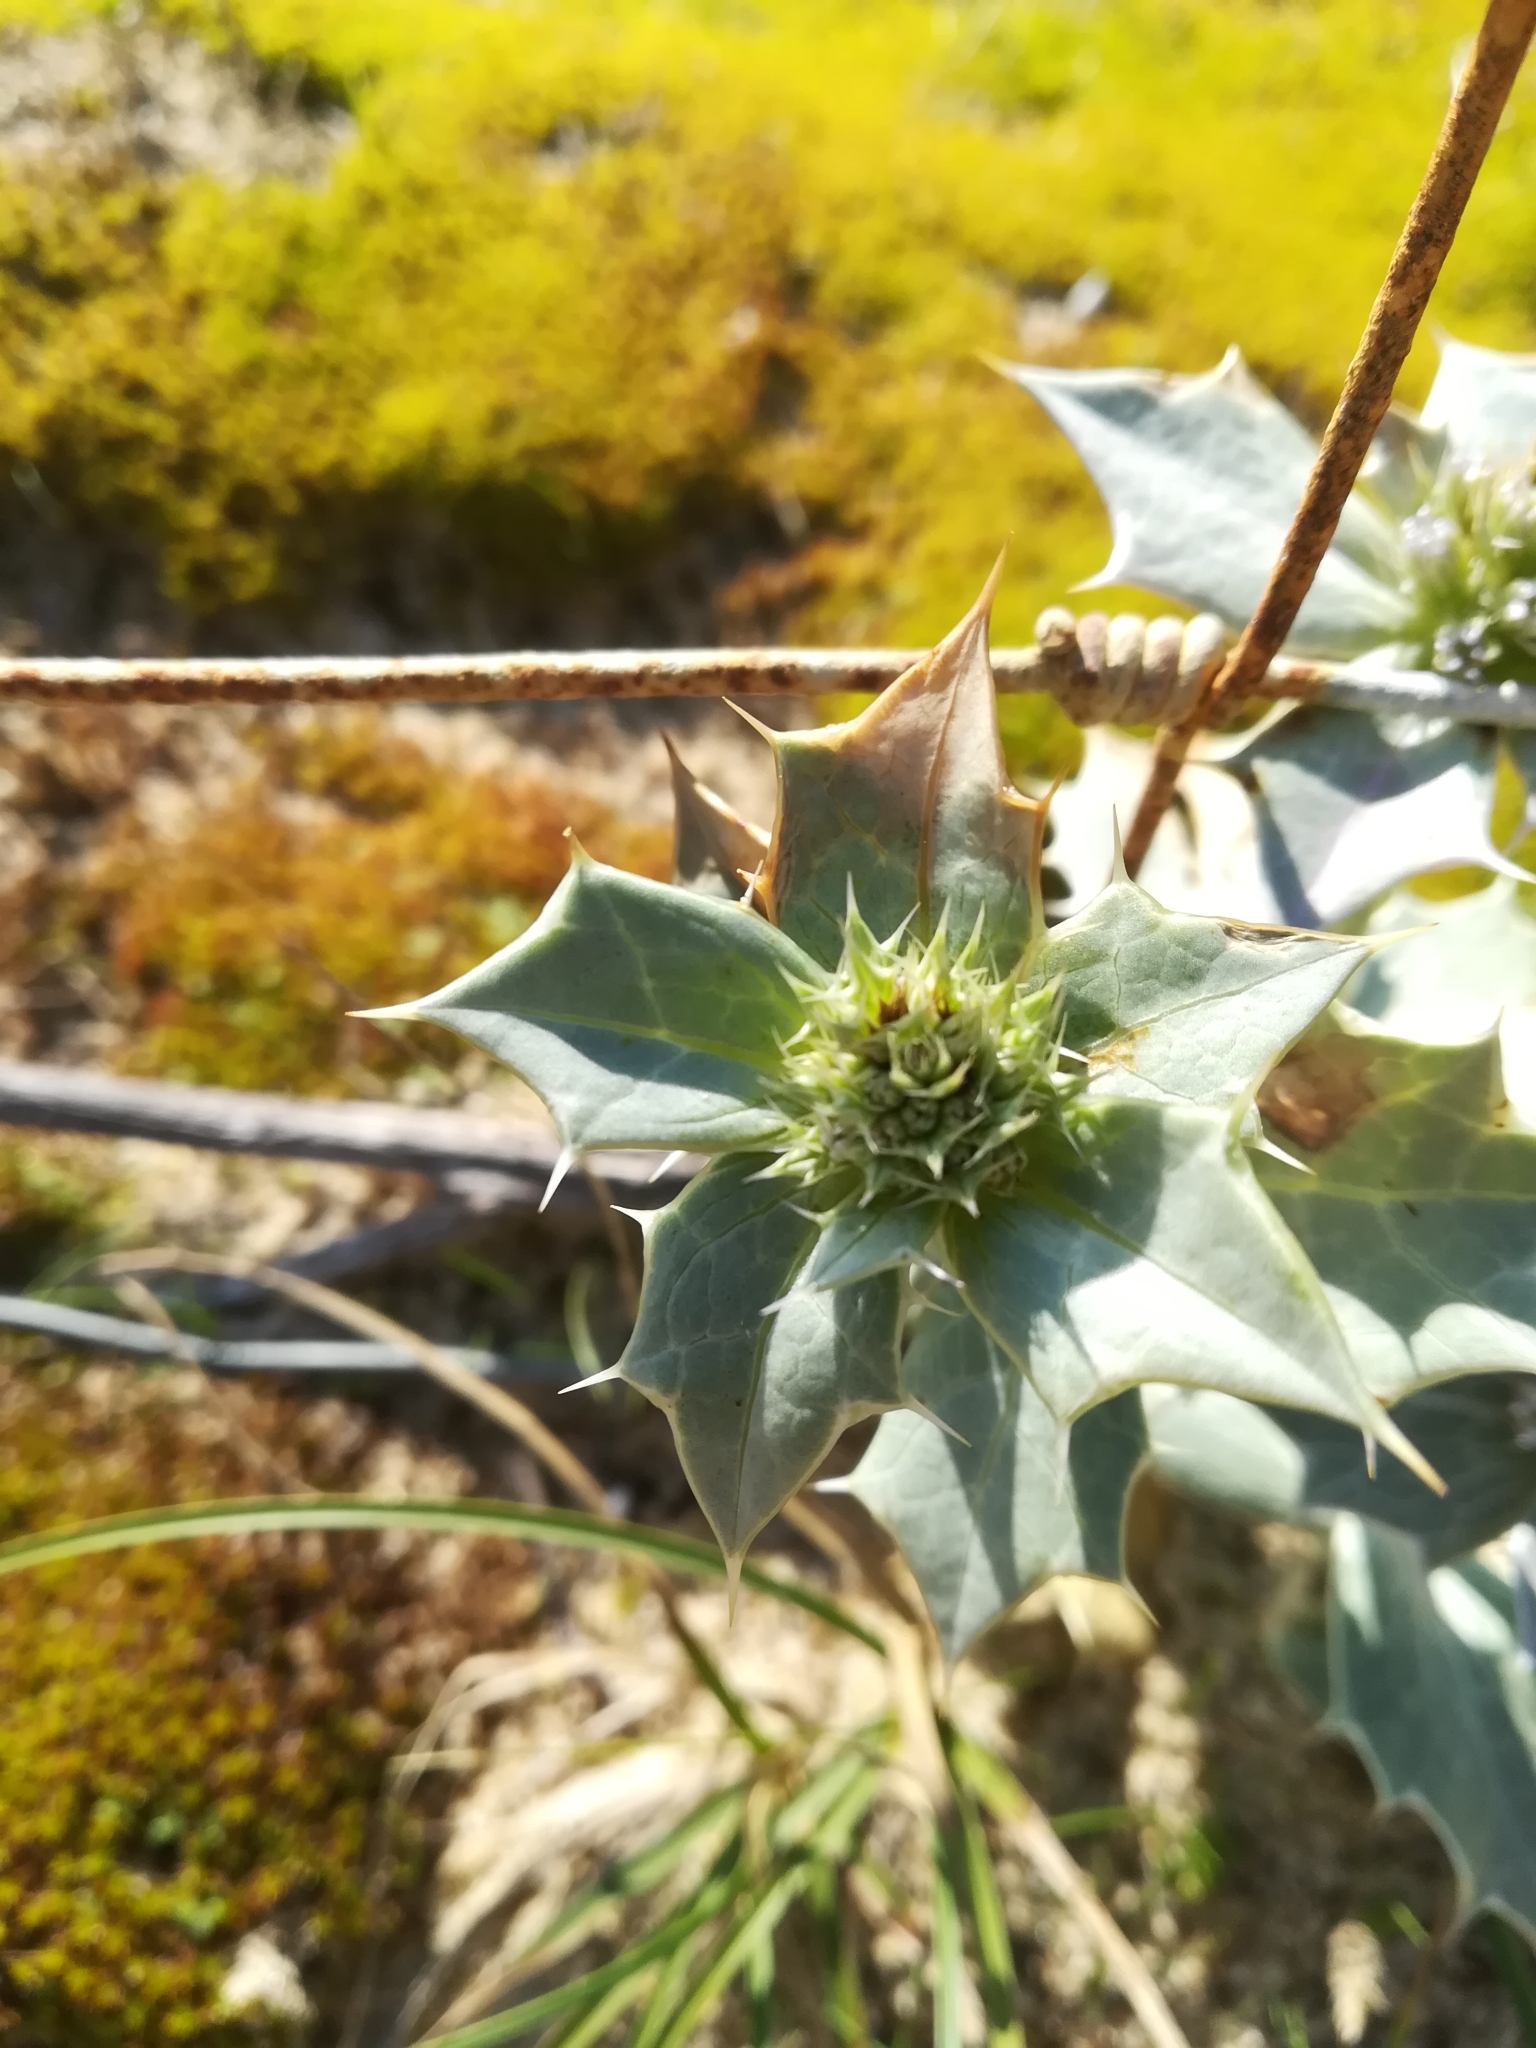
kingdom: Plantae
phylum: Tracheophyta
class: Magnoliopsida
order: Apiales
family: Apiaceae
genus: Eryngium
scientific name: Eryngium maritimum
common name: Sea-holly
